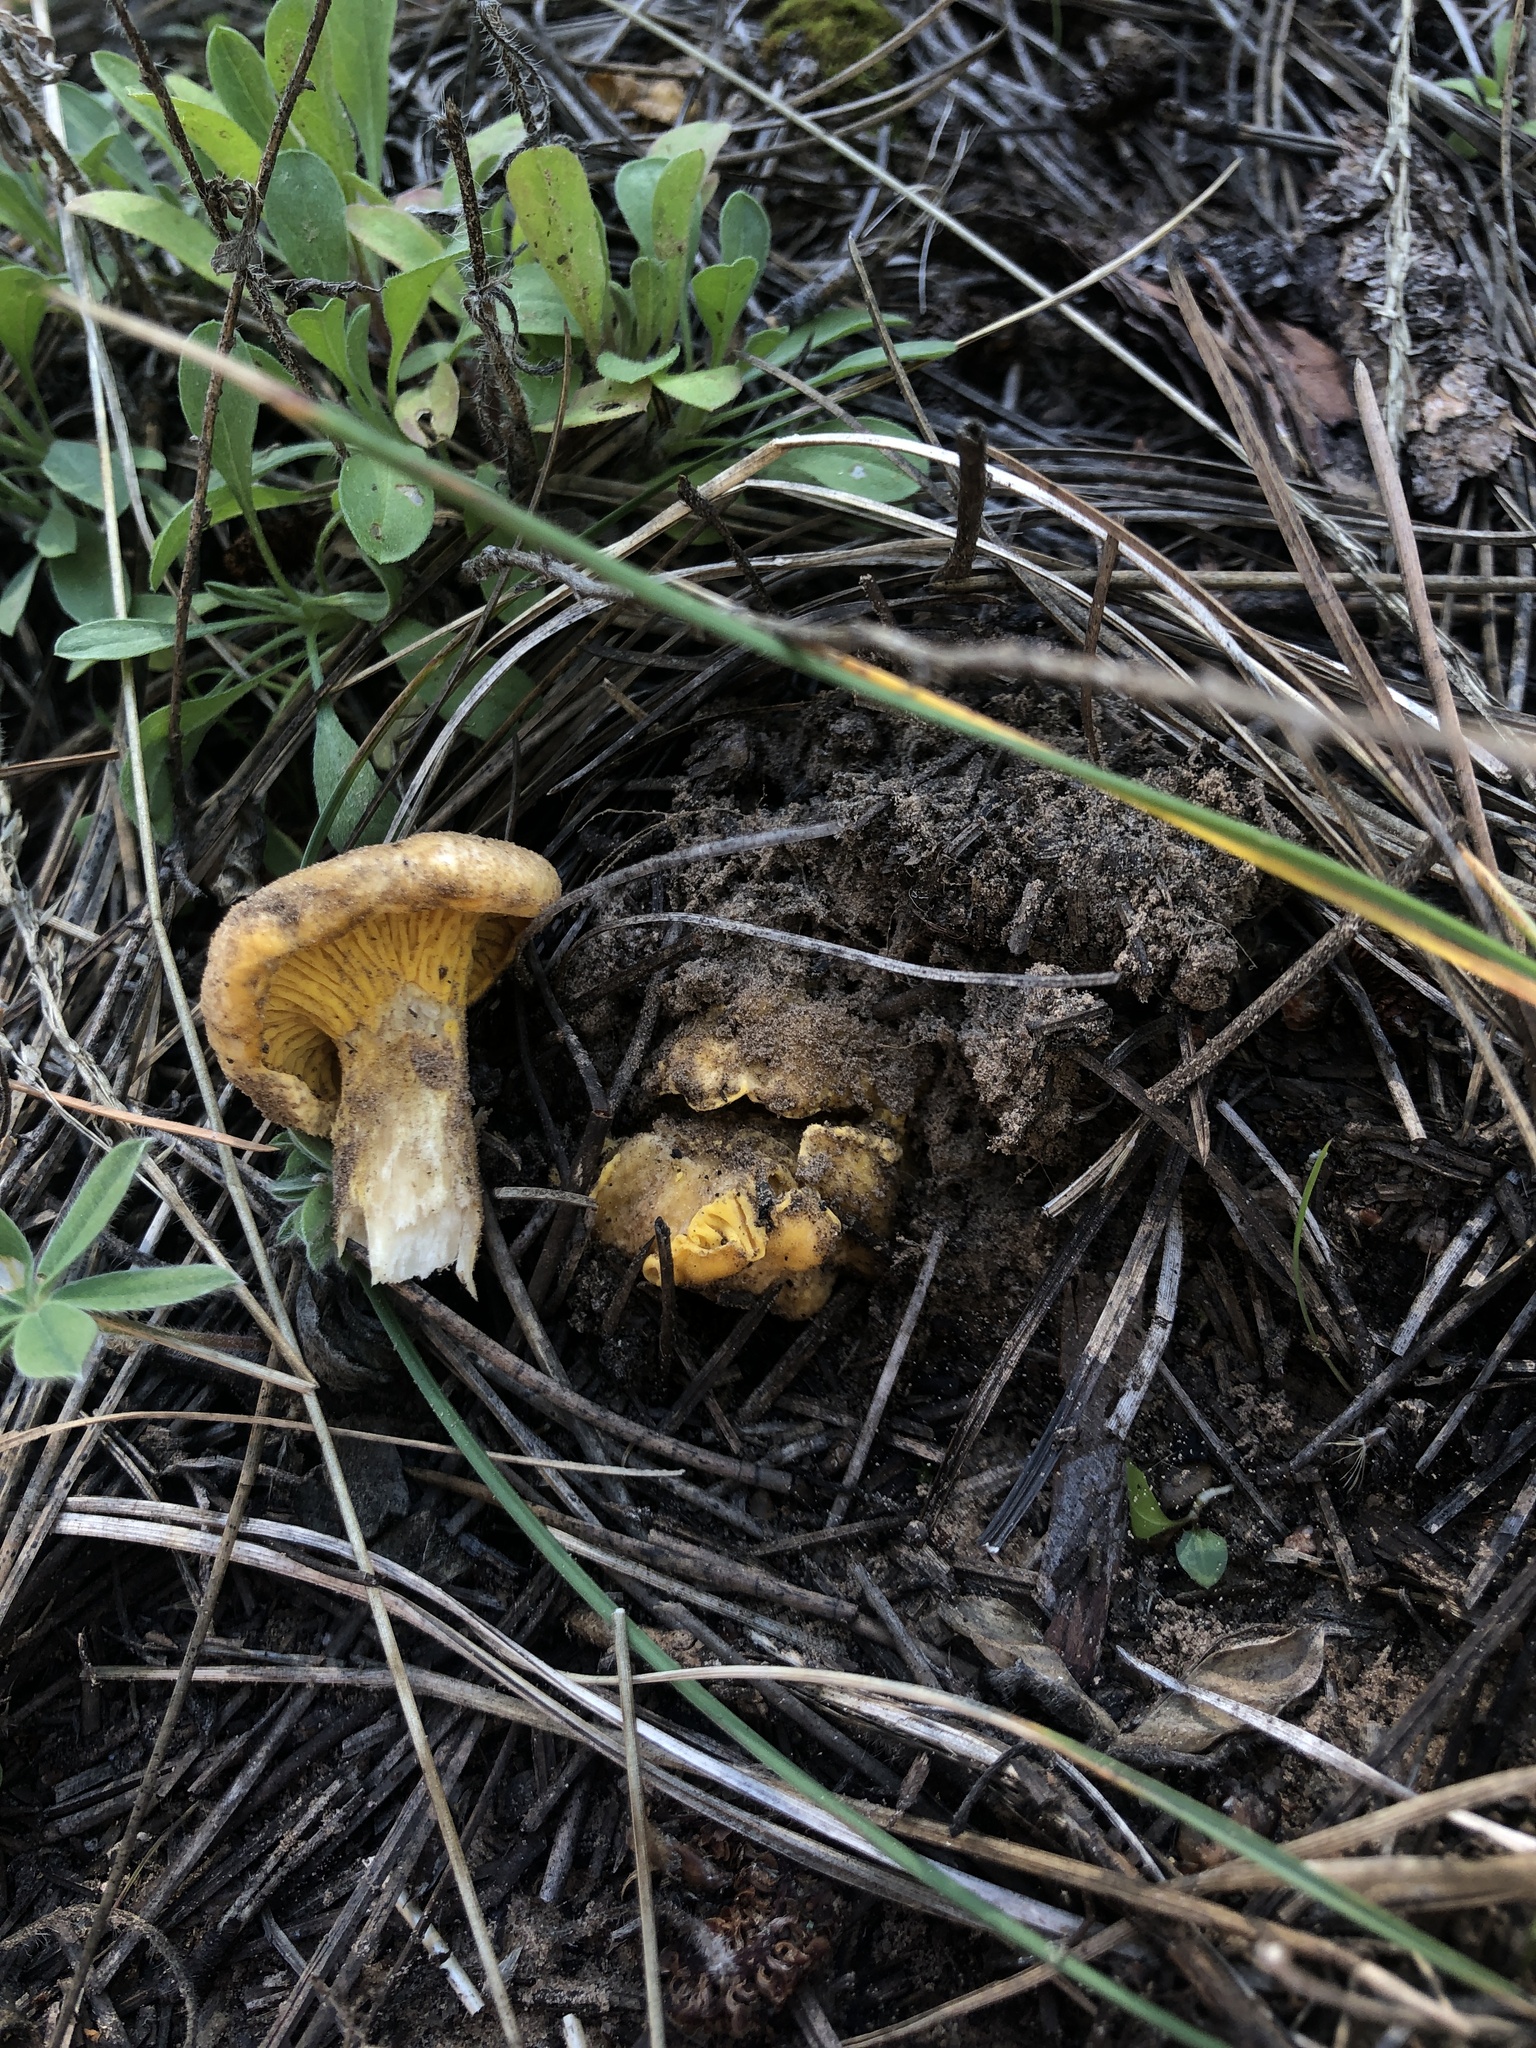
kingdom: Fungi
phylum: Basidiomycota
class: Agaricomycetes
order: Cantharellales
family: Hydnaceae
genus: Cantharellus
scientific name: Cantharellus roseocanus
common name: Rainbow chanterelle
